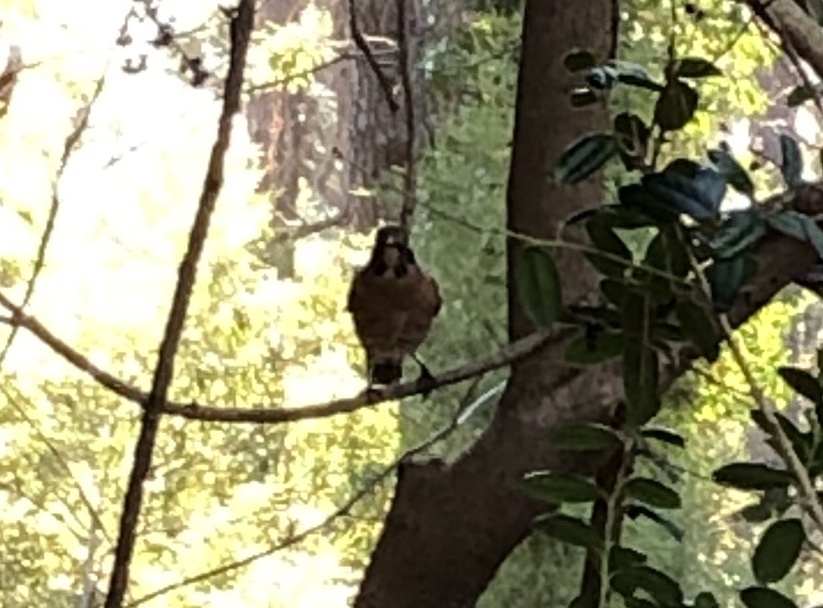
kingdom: Animalia
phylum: Chordata
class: Aves
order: Passeriformes
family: Turdidae
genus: Turdus
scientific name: Turdus migratorius
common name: American robin
